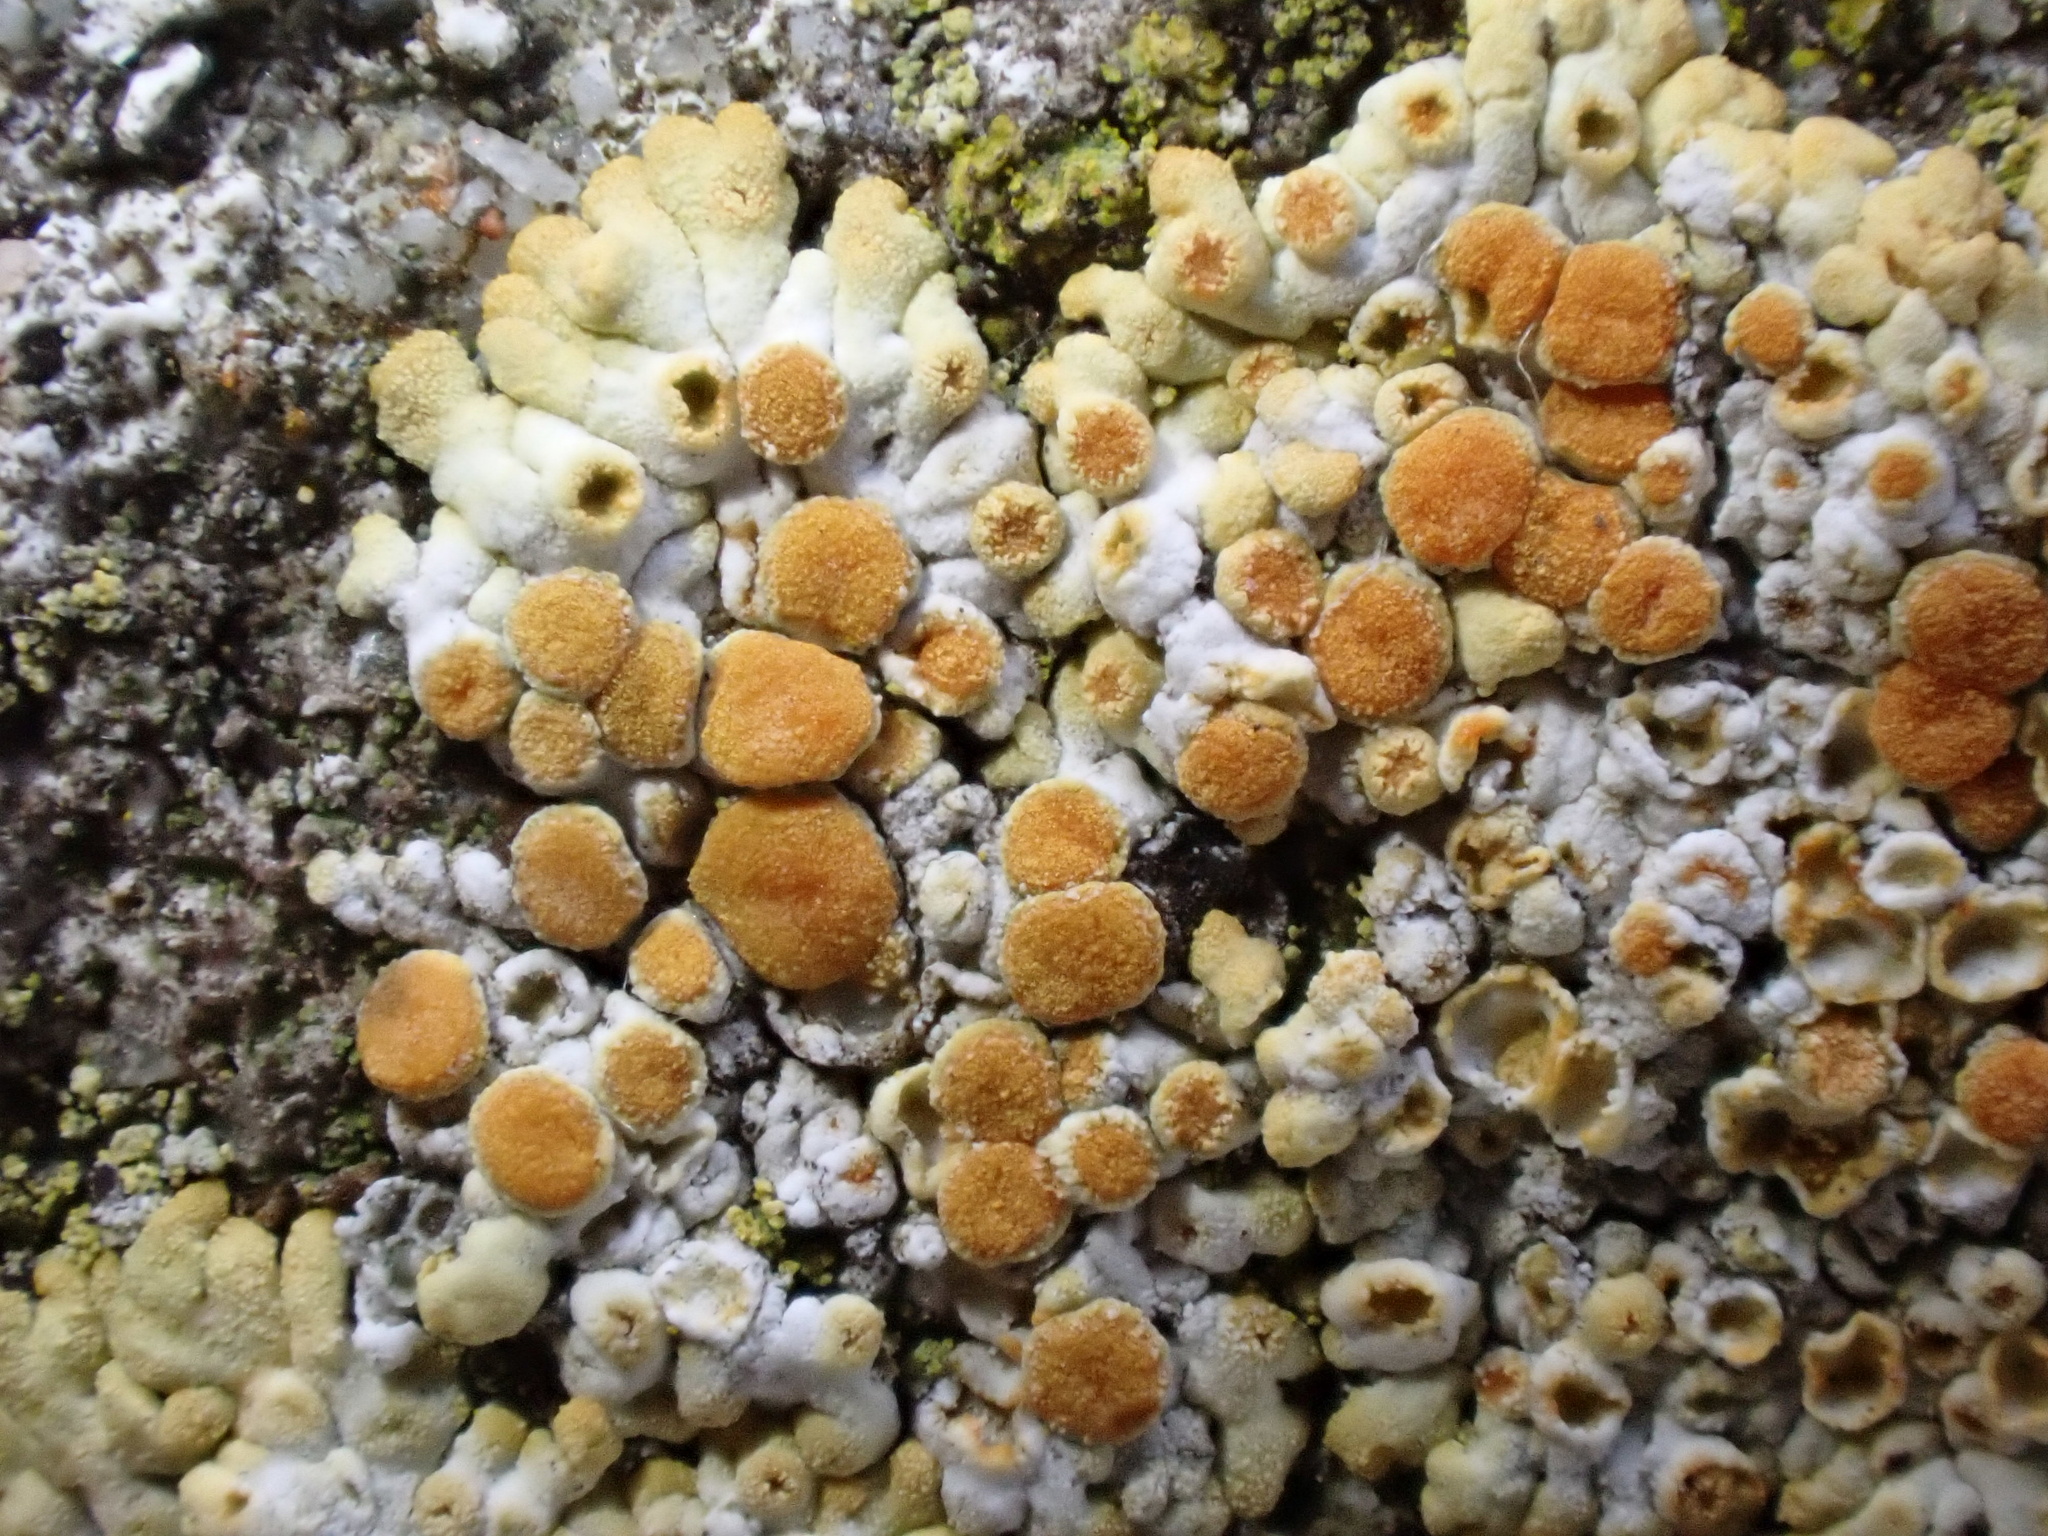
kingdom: Fungi
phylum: Ascomycota
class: Lecanoromycetes
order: Teloschistales
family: Teloschistaceae
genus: Calogaya
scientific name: Calogaya pusilla
